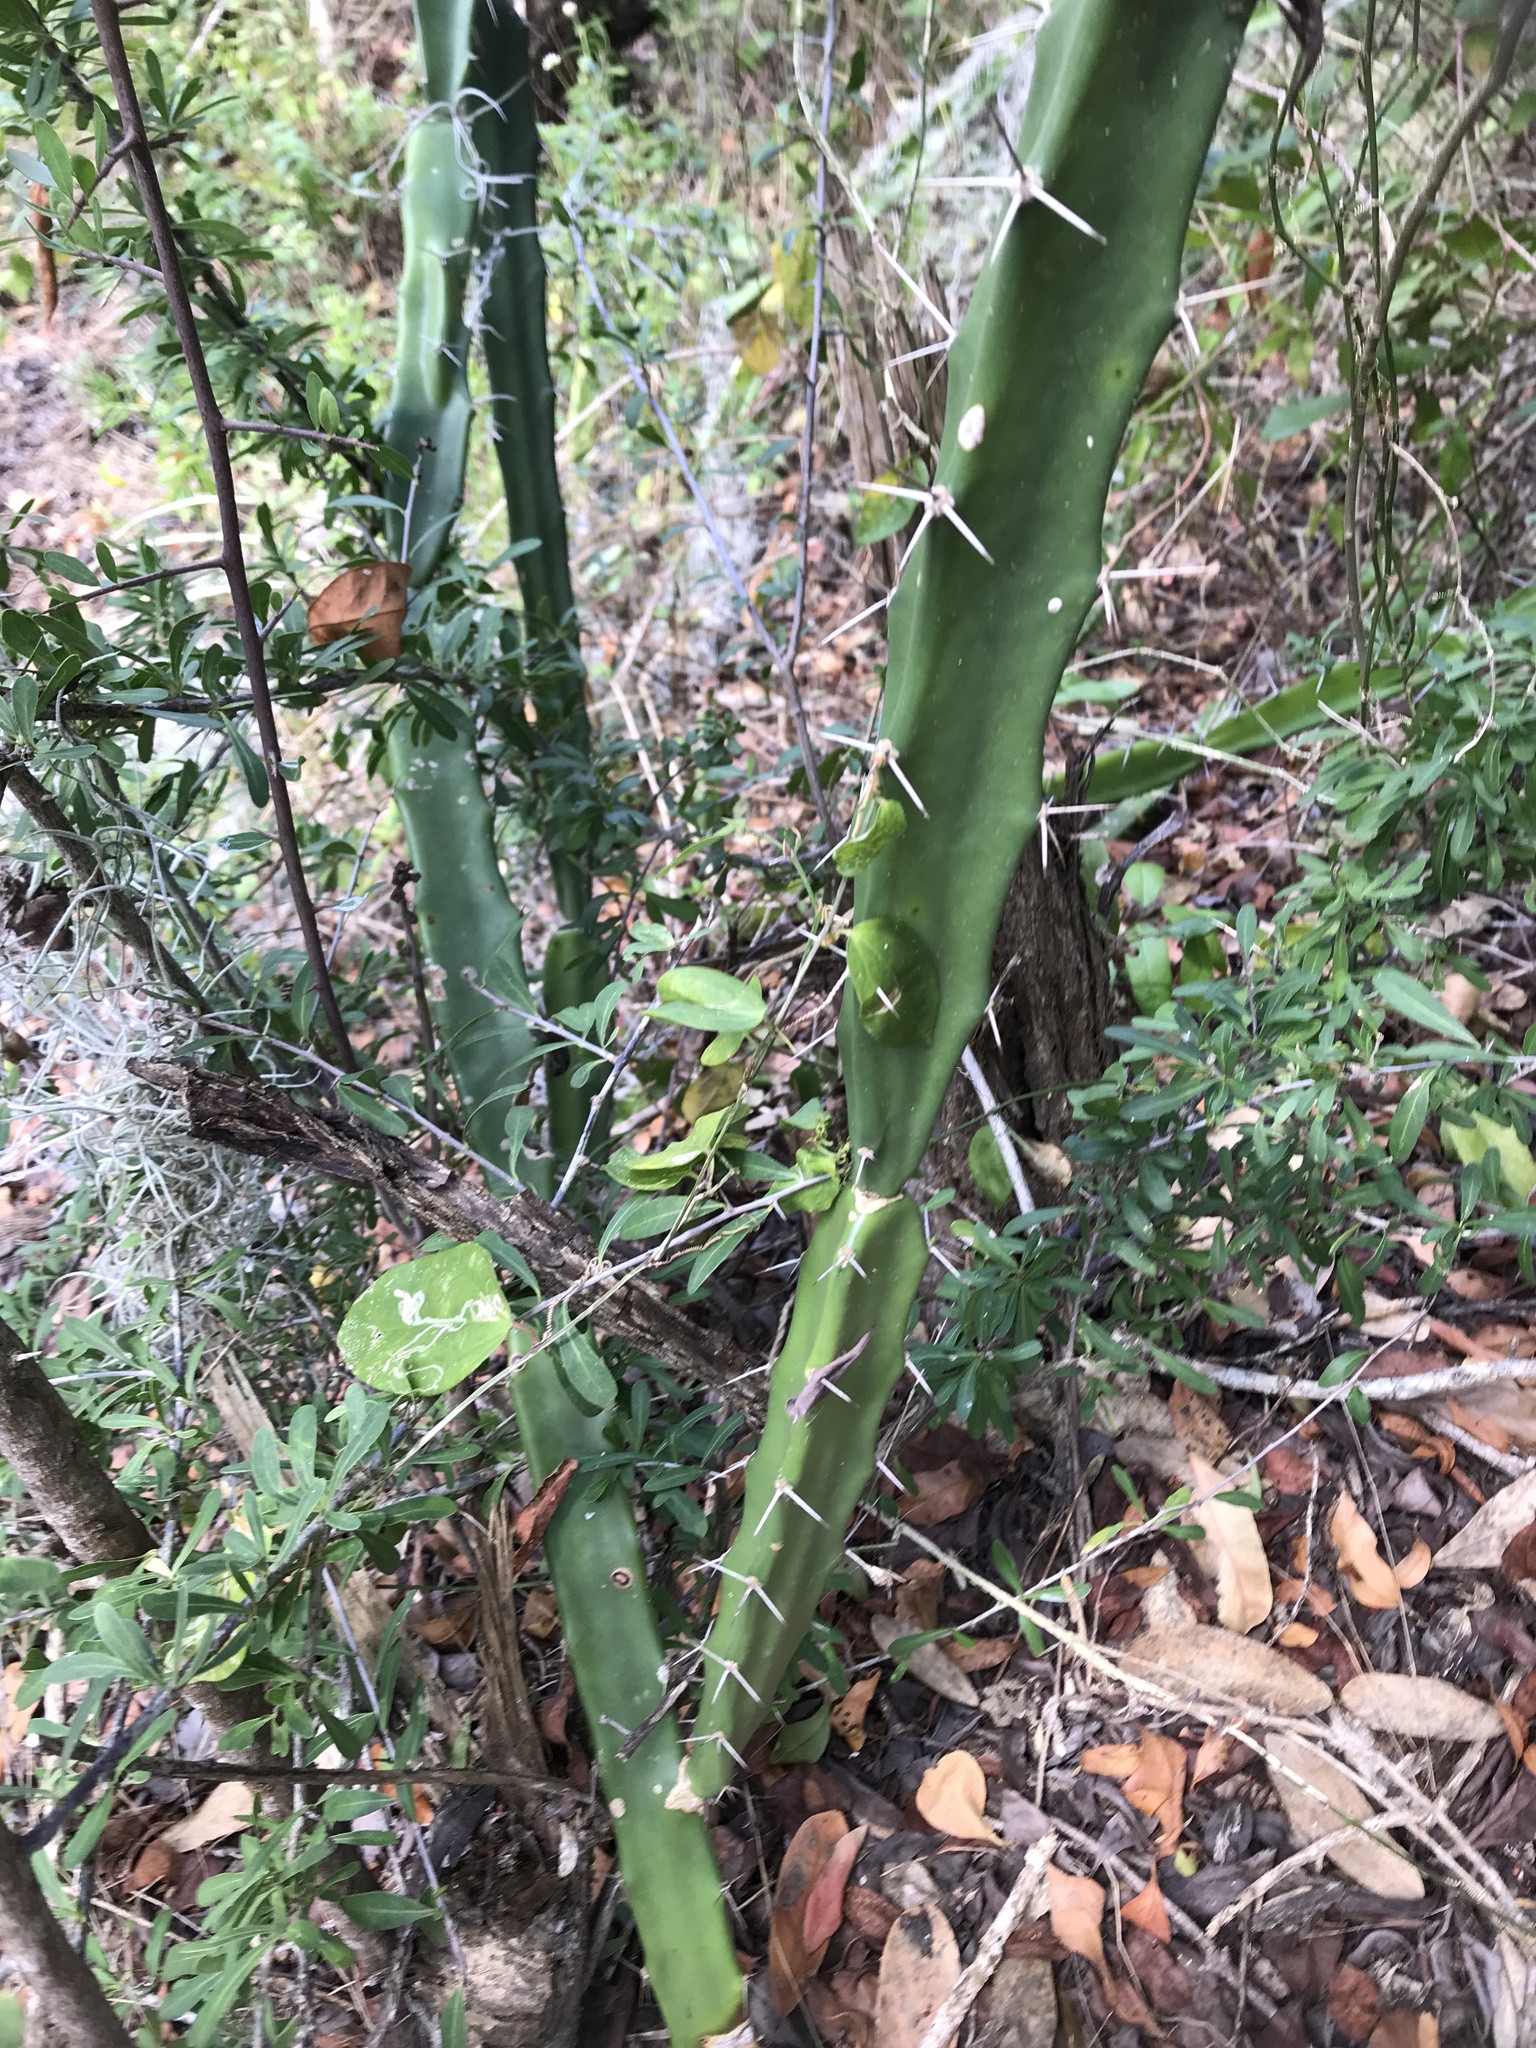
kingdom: Plantae
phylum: Tracheophyta
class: Magnoliopsida
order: Caryophyllales
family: Cactaceae
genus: Acanthocereus
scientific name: Acanthocereus tetragonus
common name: Triangle cactus
